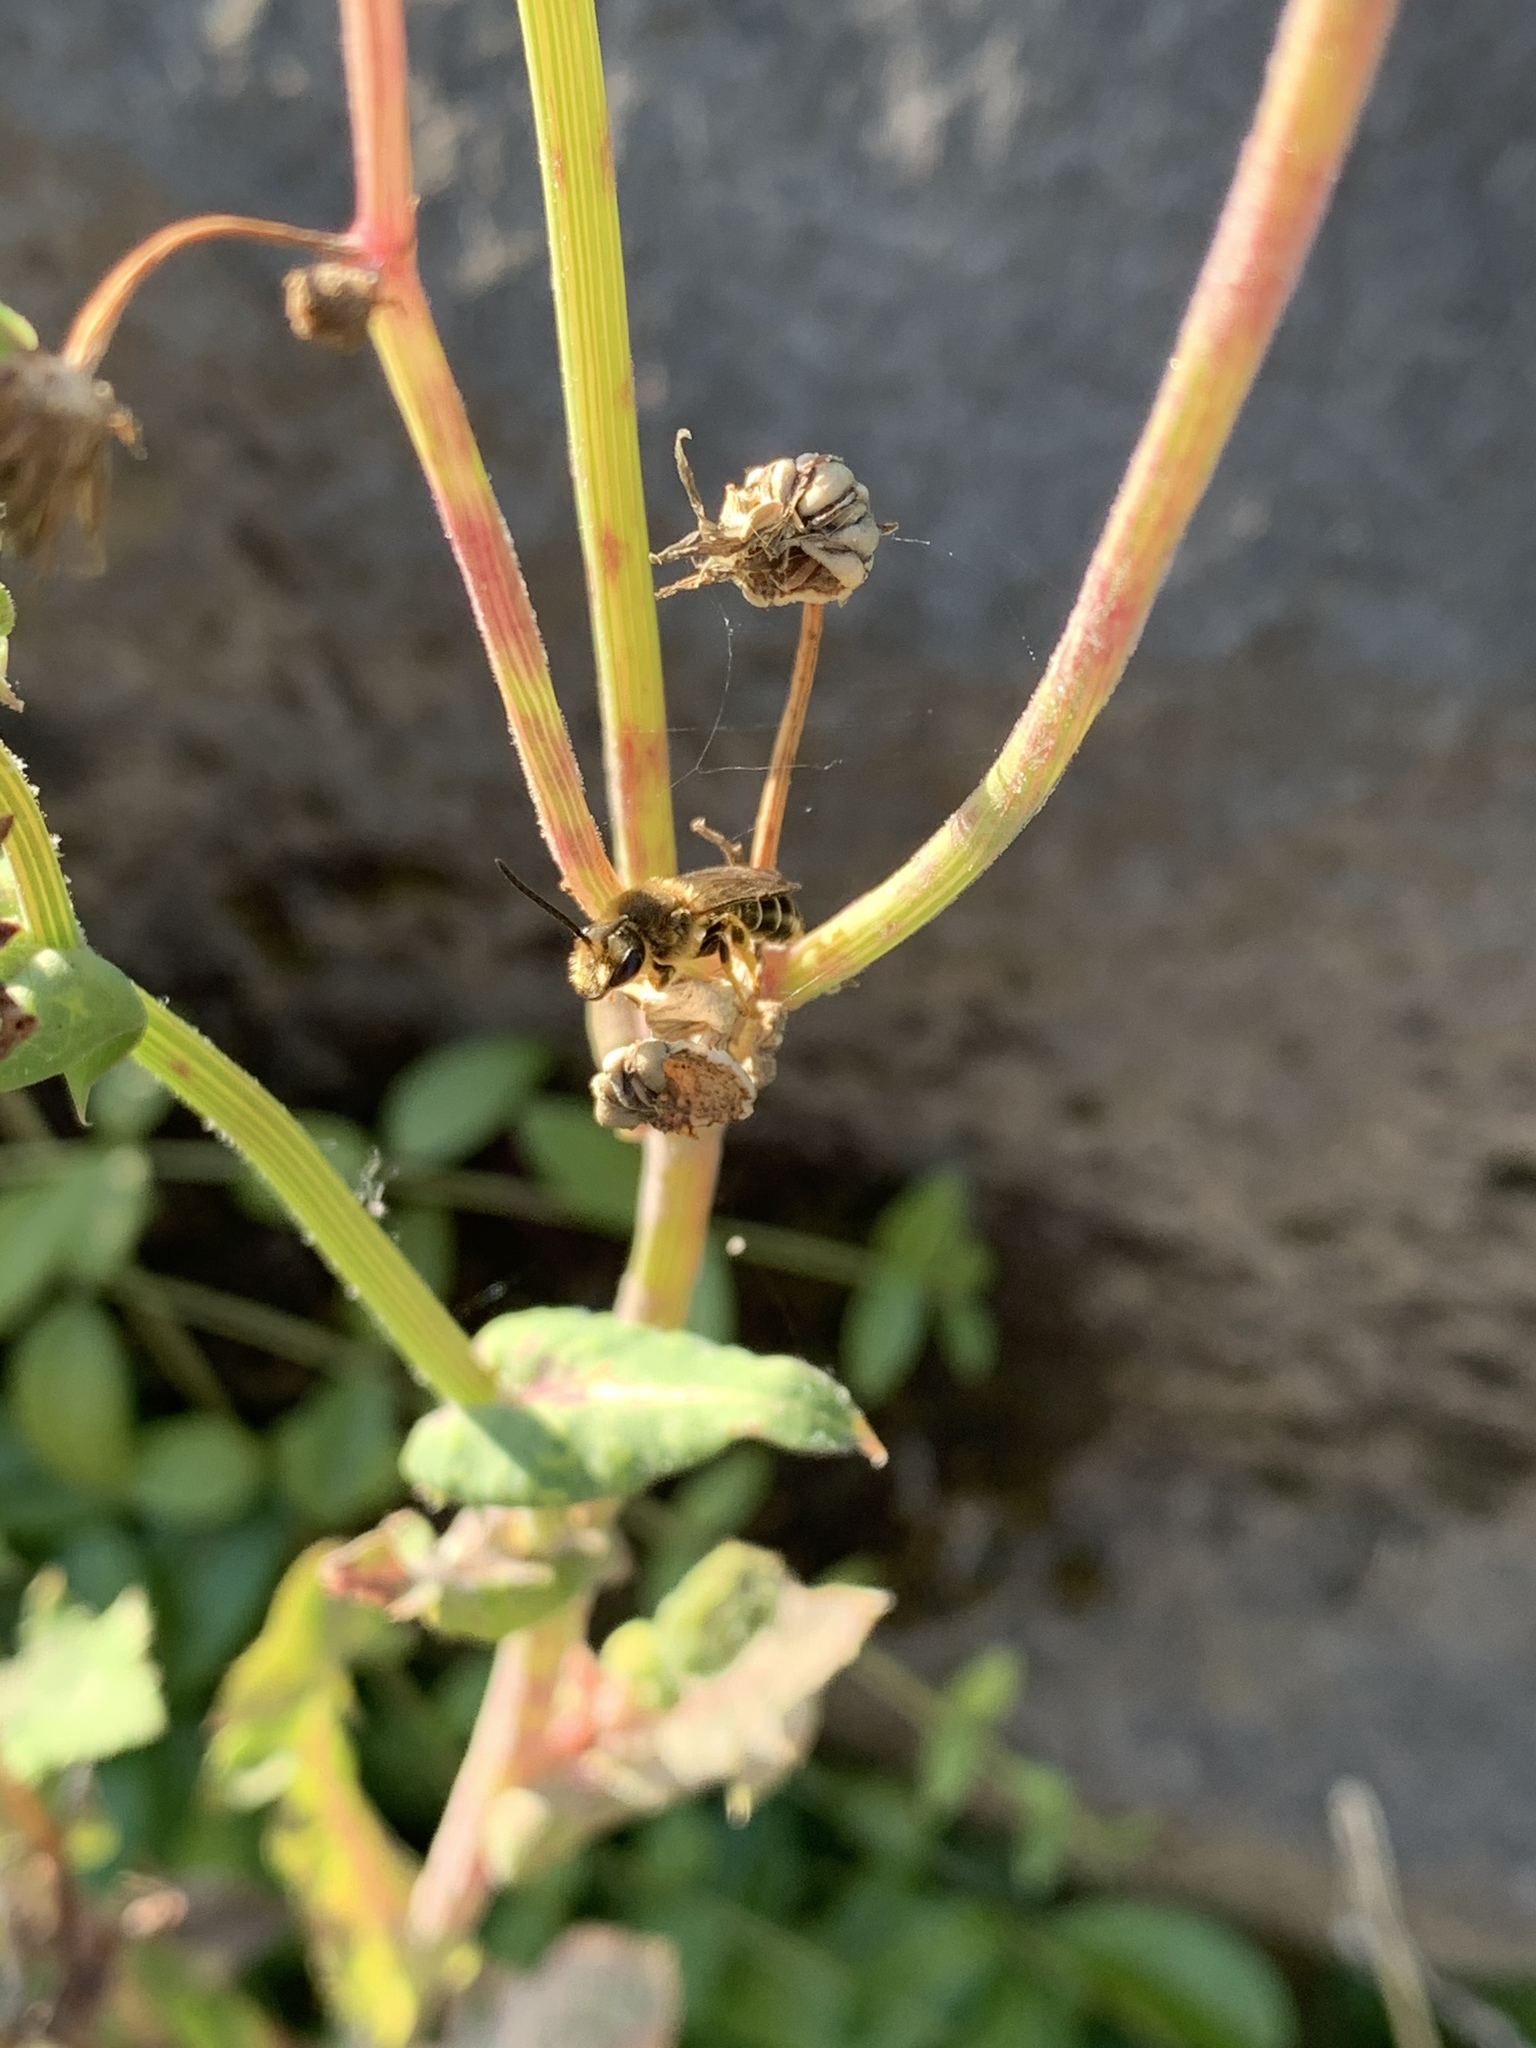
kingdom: Animalia
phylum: Arthropoda
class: Insecta
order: Hymenoptera
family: Halictidae
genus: Halictus
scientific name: Halictus rubicundus
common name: Orange-legged furrow bee
